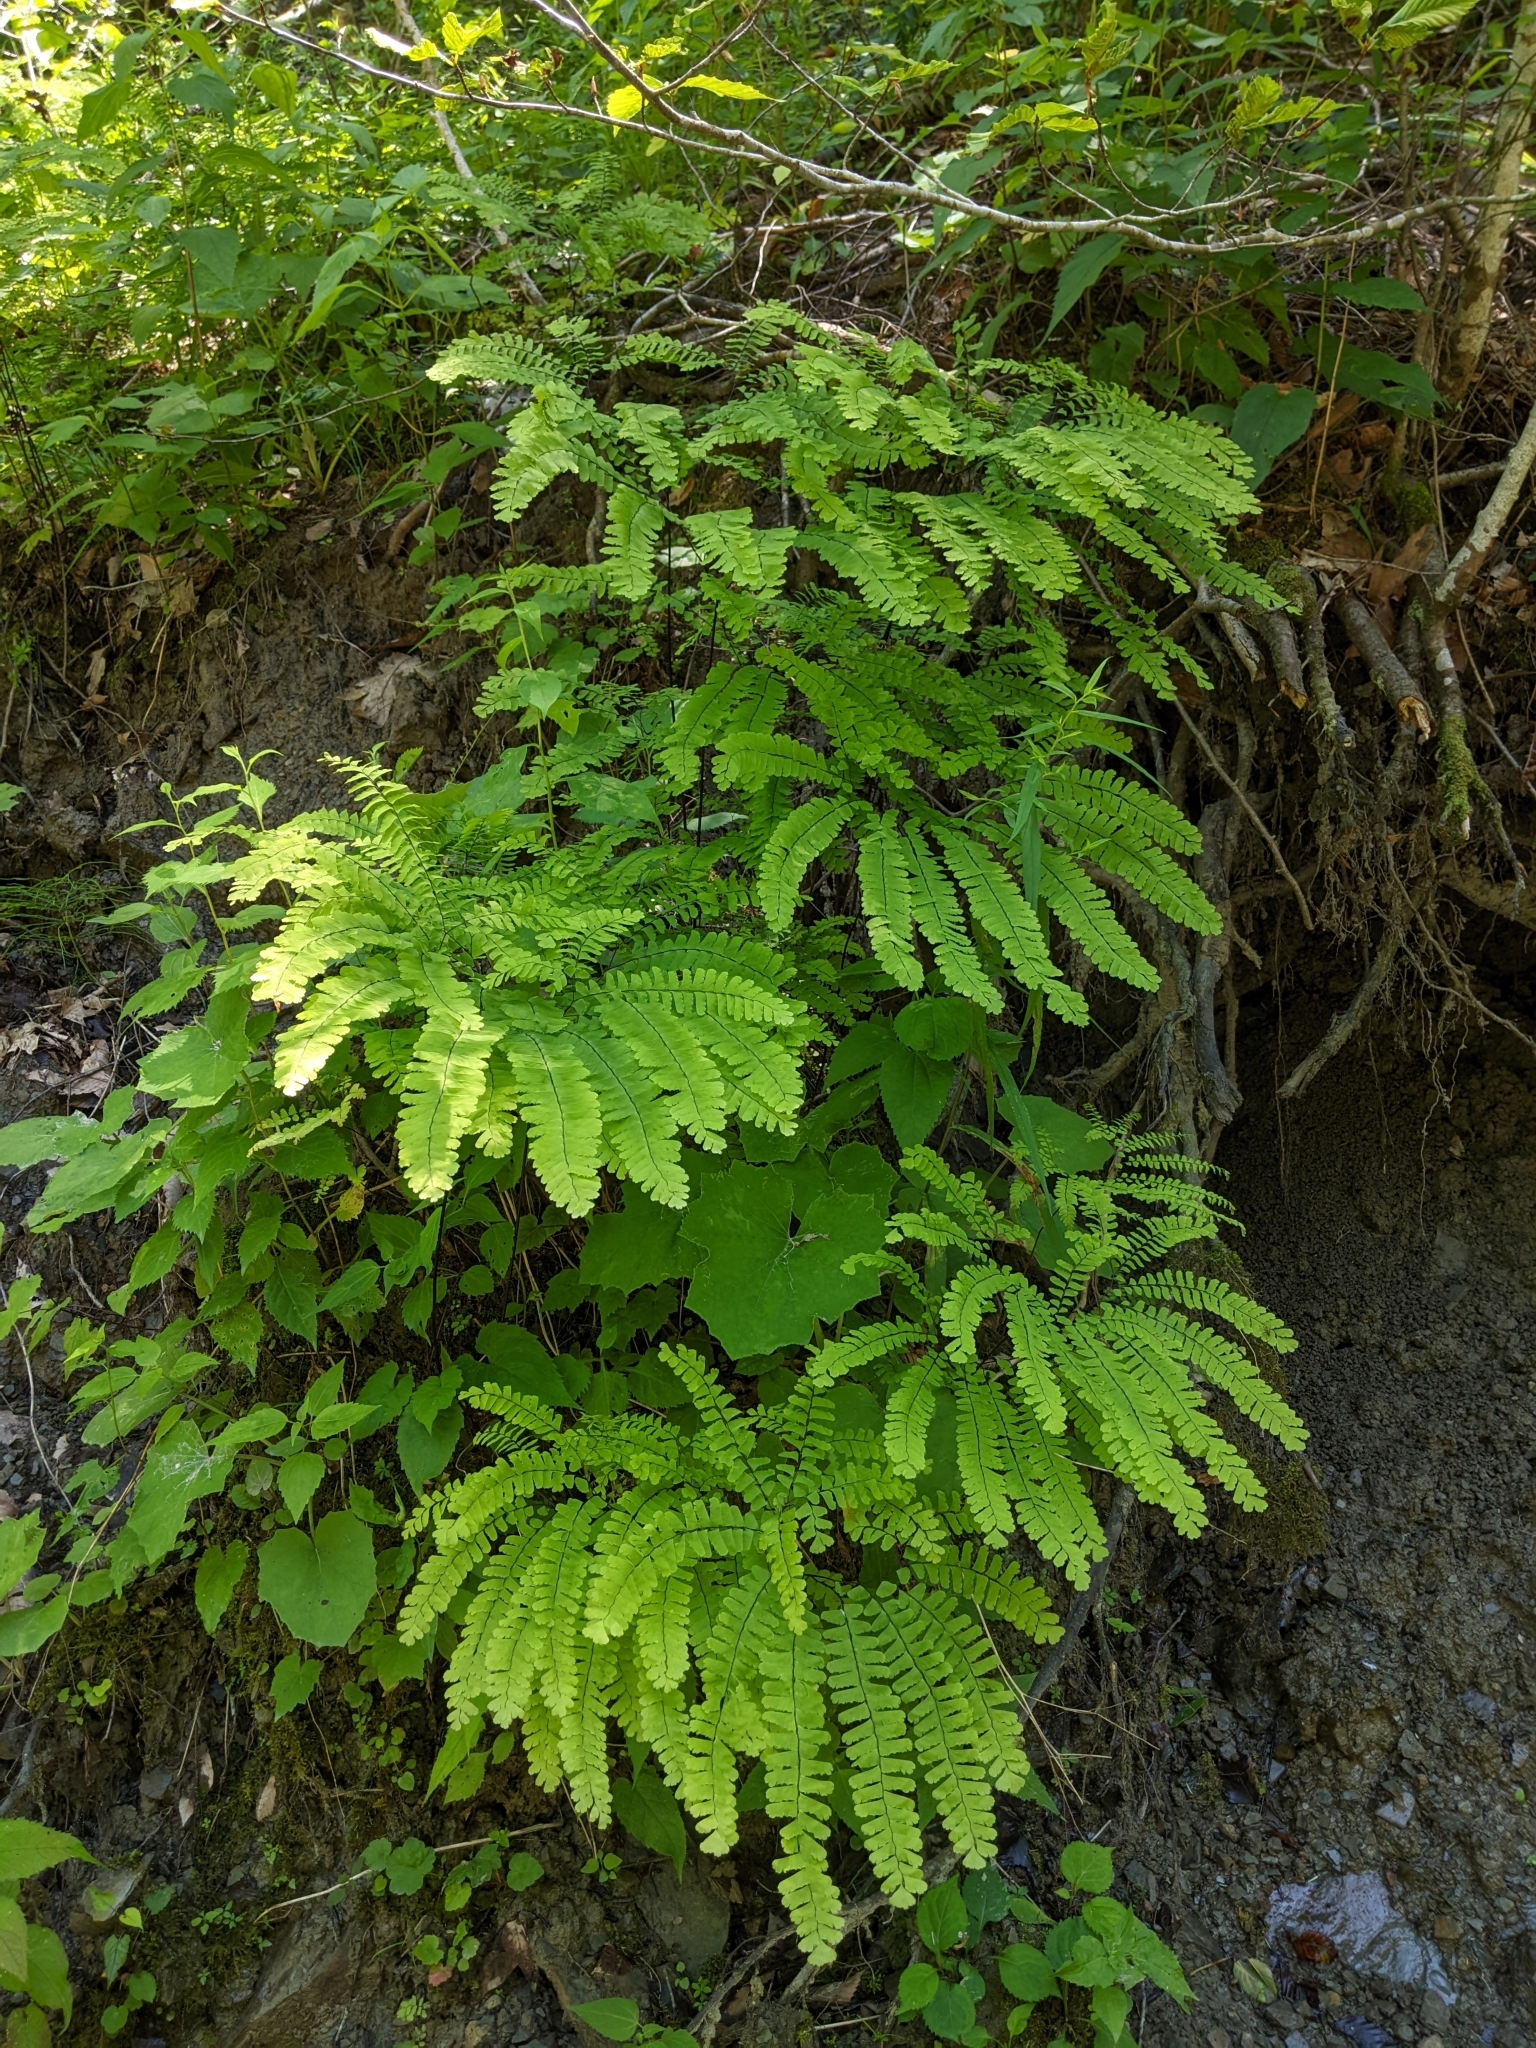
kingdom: Plantae
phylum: Tracheophyta
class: Polypodiopsida
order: Polypodiales
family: Pteridaceae
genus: Adiantum
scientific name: Adiantum pedatum
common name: Five-finger fern
